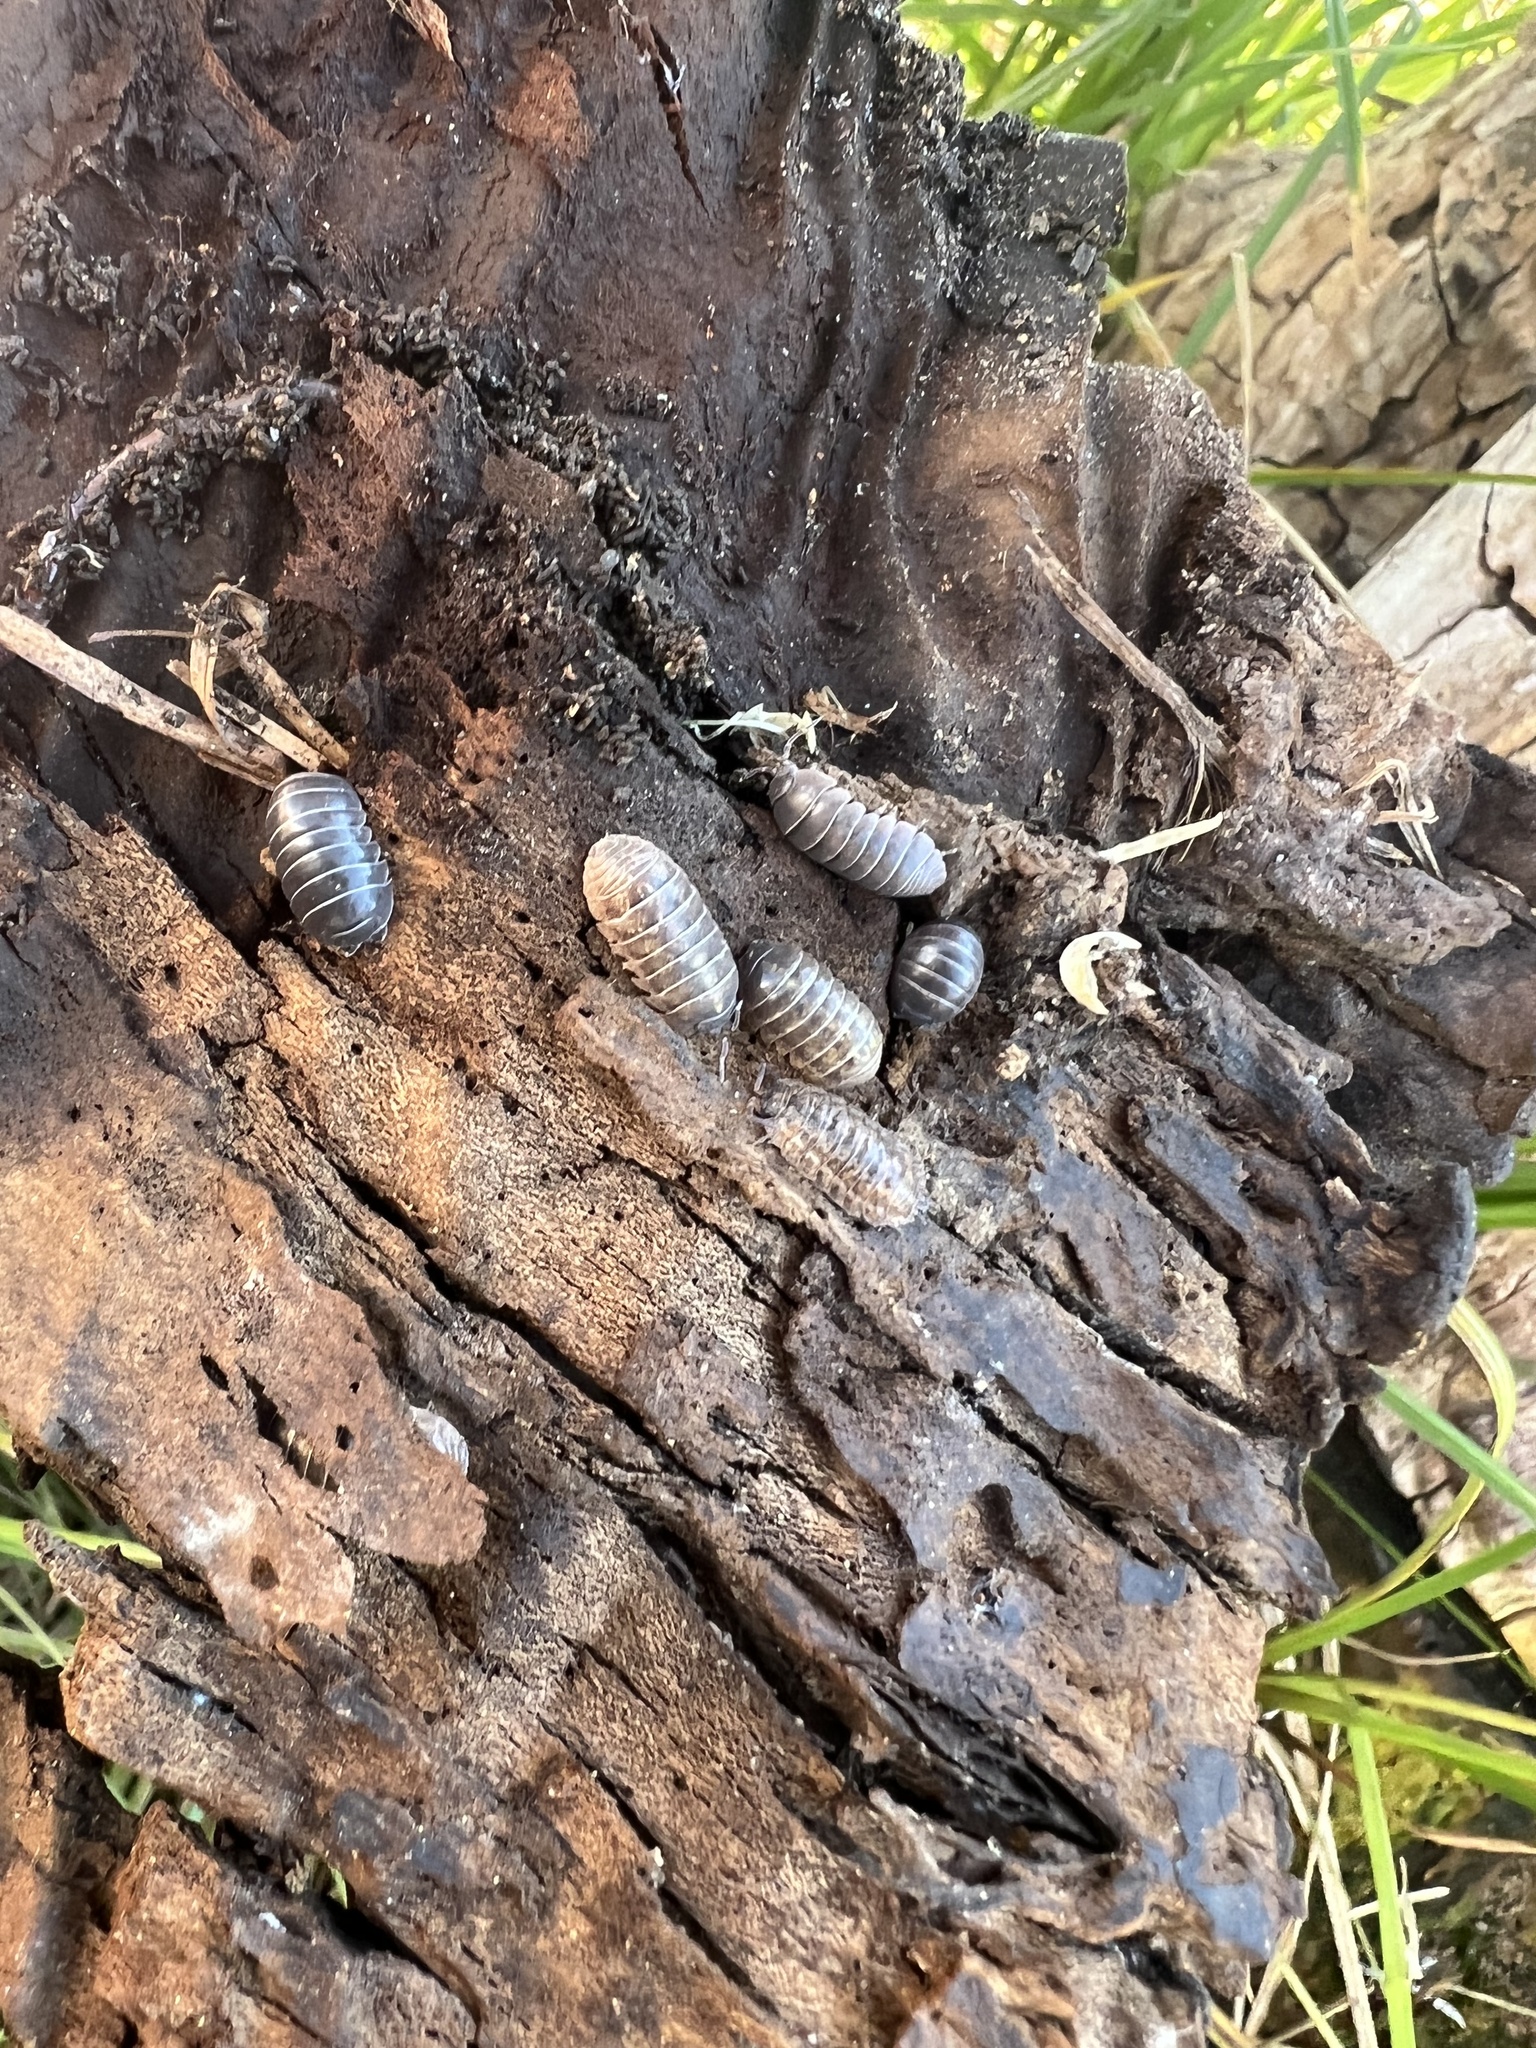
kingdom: Animalia
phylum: Arthropoda
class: Malacostraca
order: Isopoda
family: Armadillidiidae
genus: Armadillidium
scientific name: Armadillidium vulgare
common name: Common pill woodlouse
